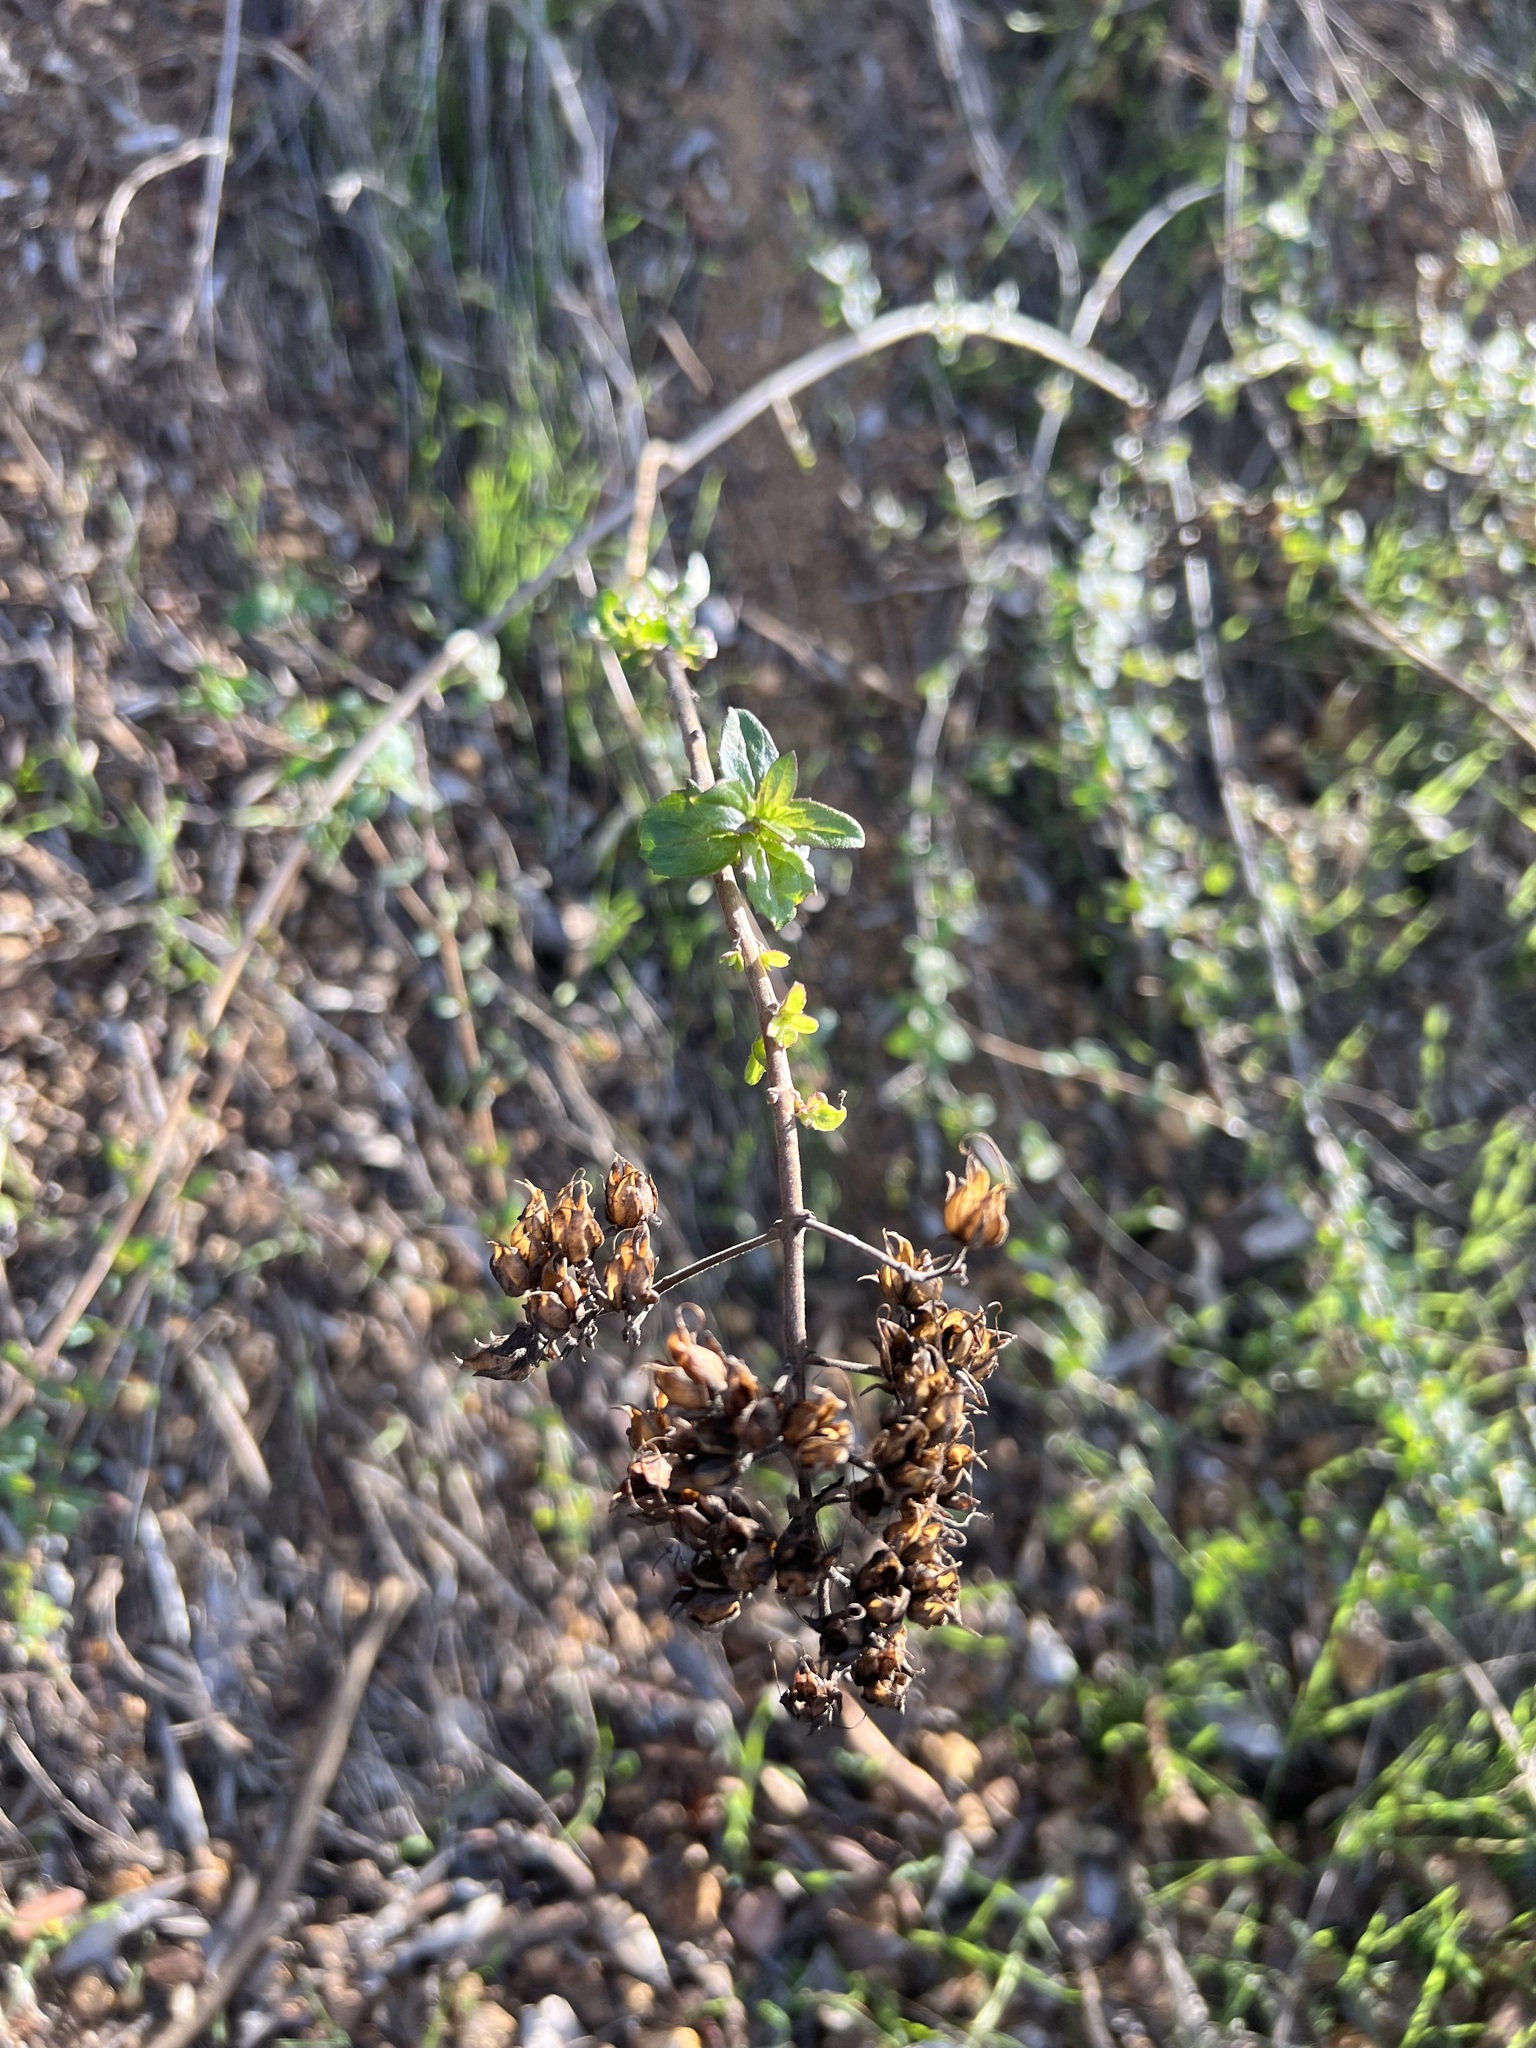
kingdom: Plantae
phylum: Tracheophyta
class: Magnoliopsida
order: Lamiales
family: Plantaginaceae
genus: Keckiella
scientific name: Keckiella cordifolia
